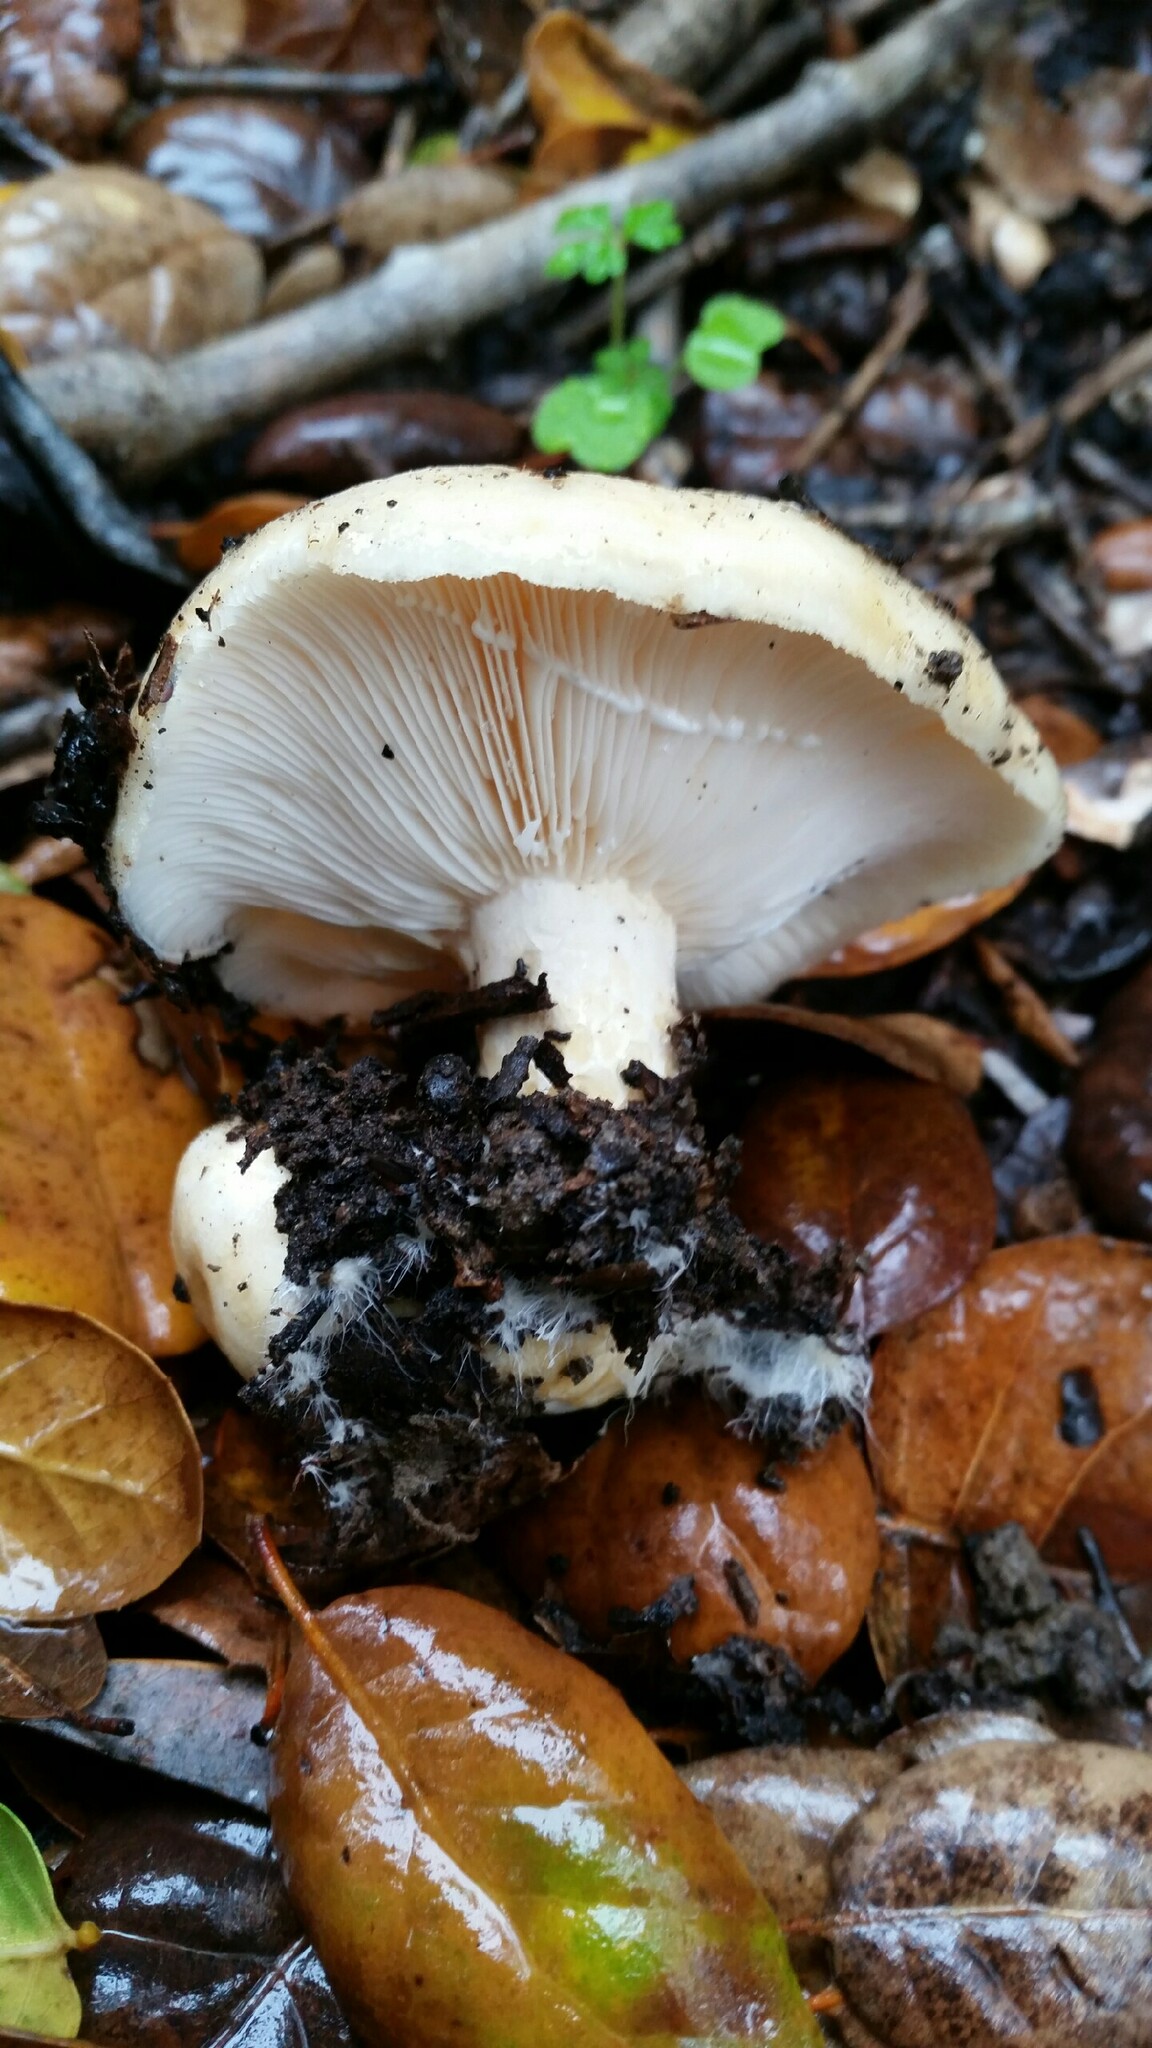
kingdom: Fungi
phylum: Basidiomycota
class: Agaricomycetes
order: Russulales
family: Russulaceae
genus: Lactarius
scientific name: Lactarius alnicola
